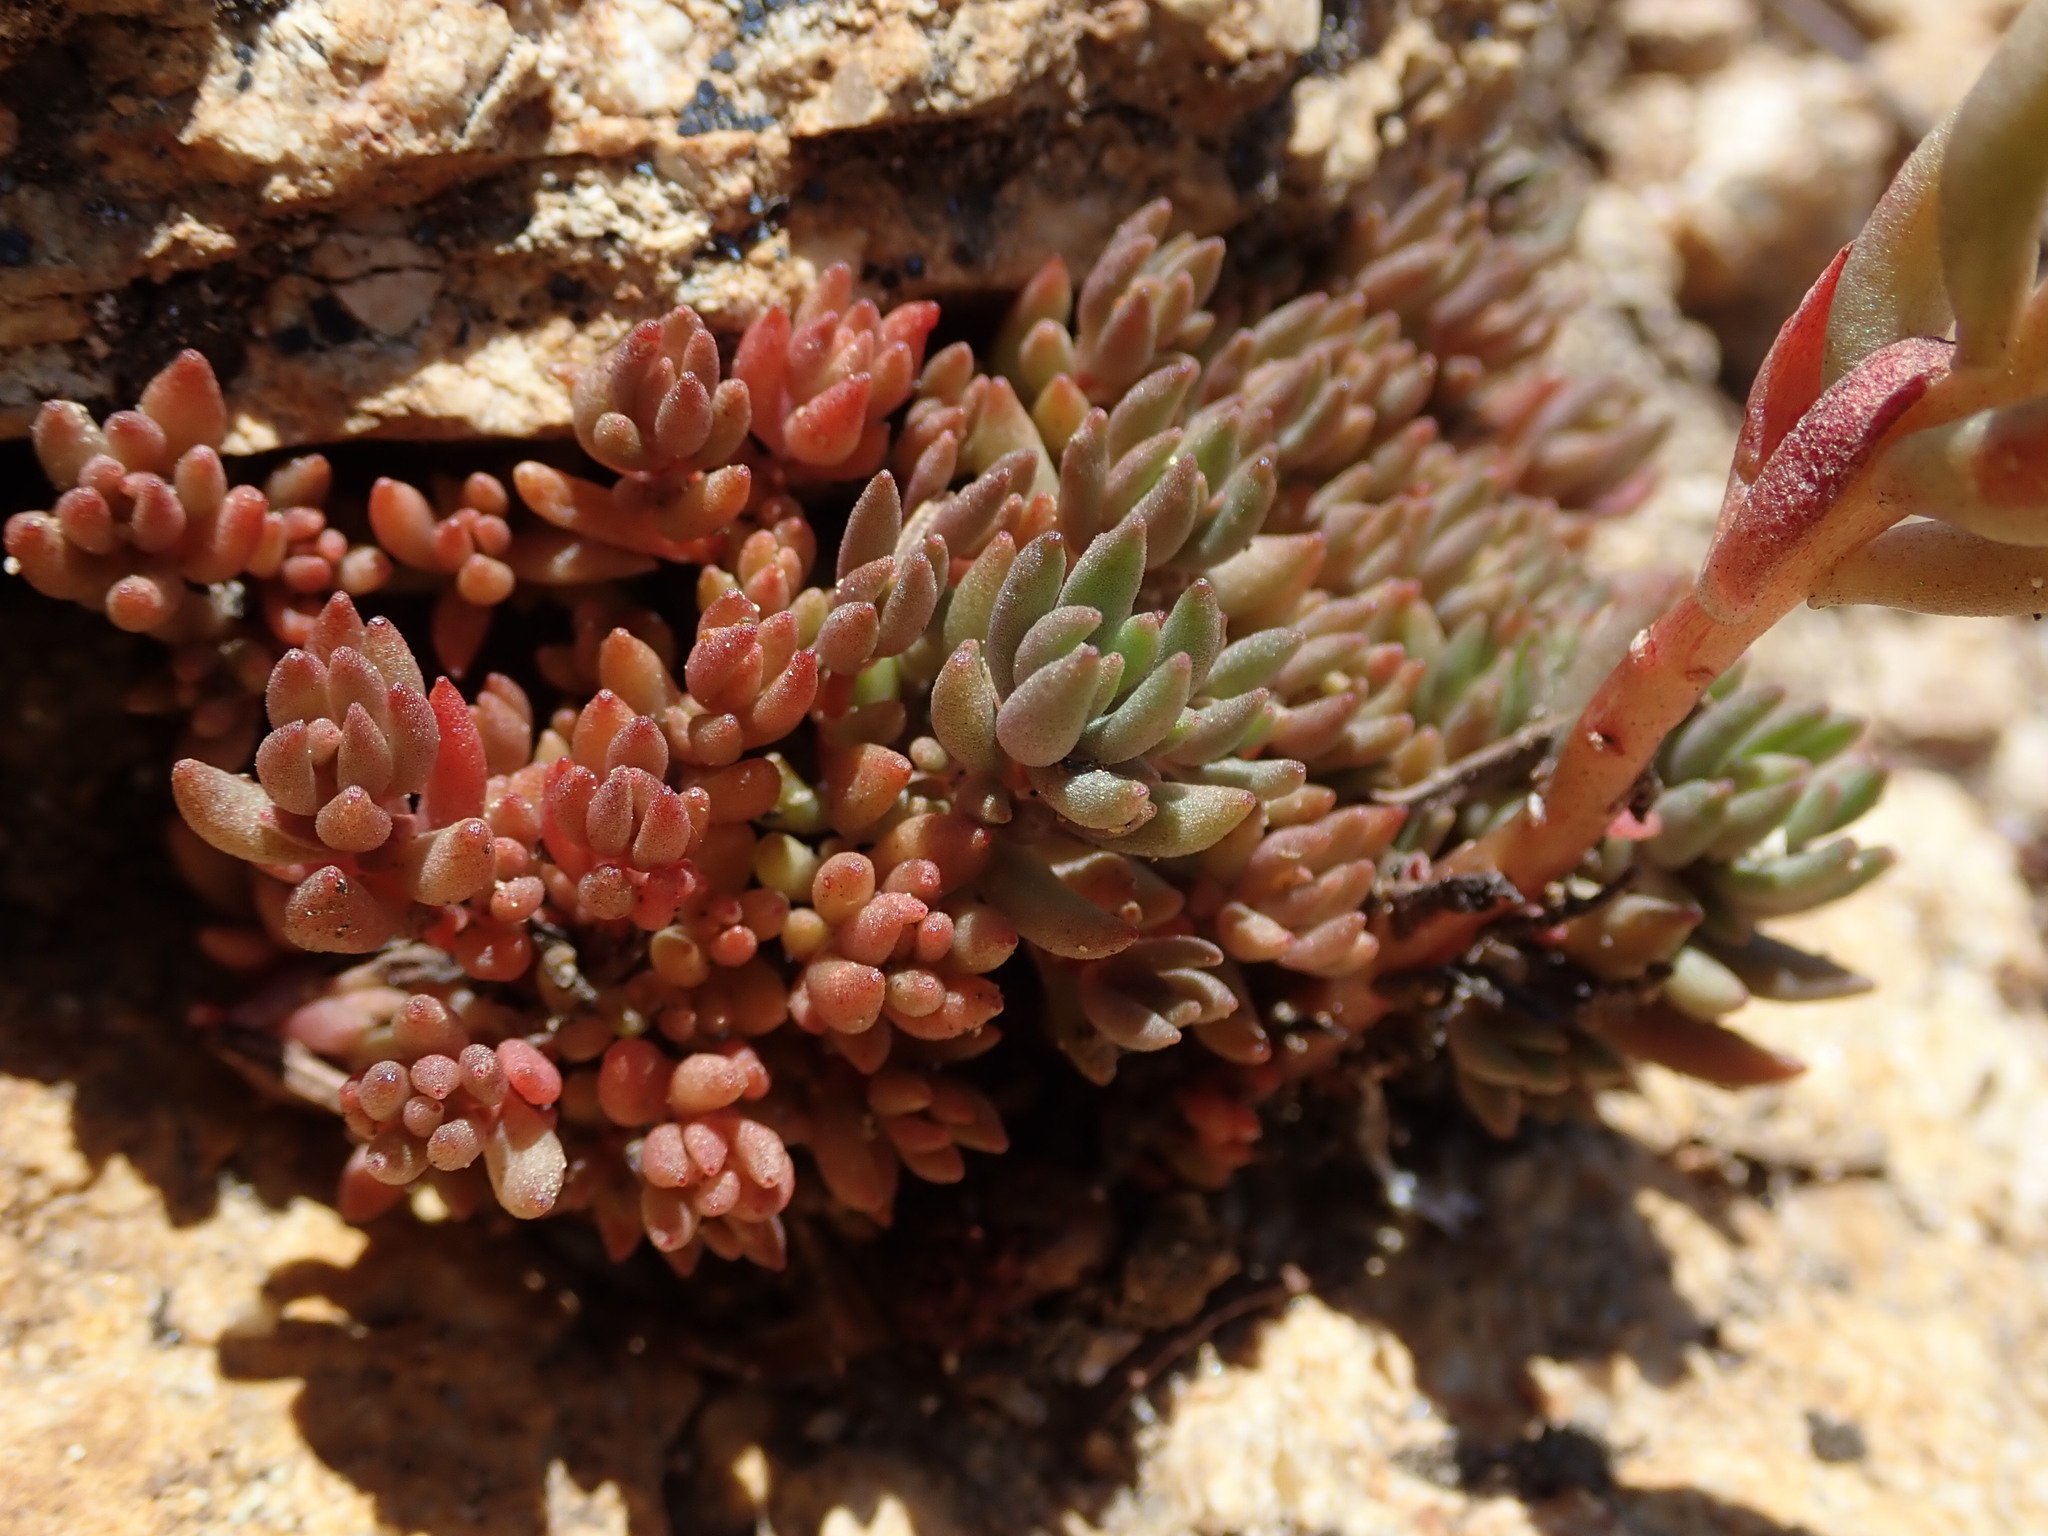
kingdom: Plantae
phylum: Tracheophyta
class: Magnoliopsida
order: Saxifragales
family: Crassulaceae
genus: Sedum
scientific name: Sedum lanceolatum
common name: Common stonecrop
